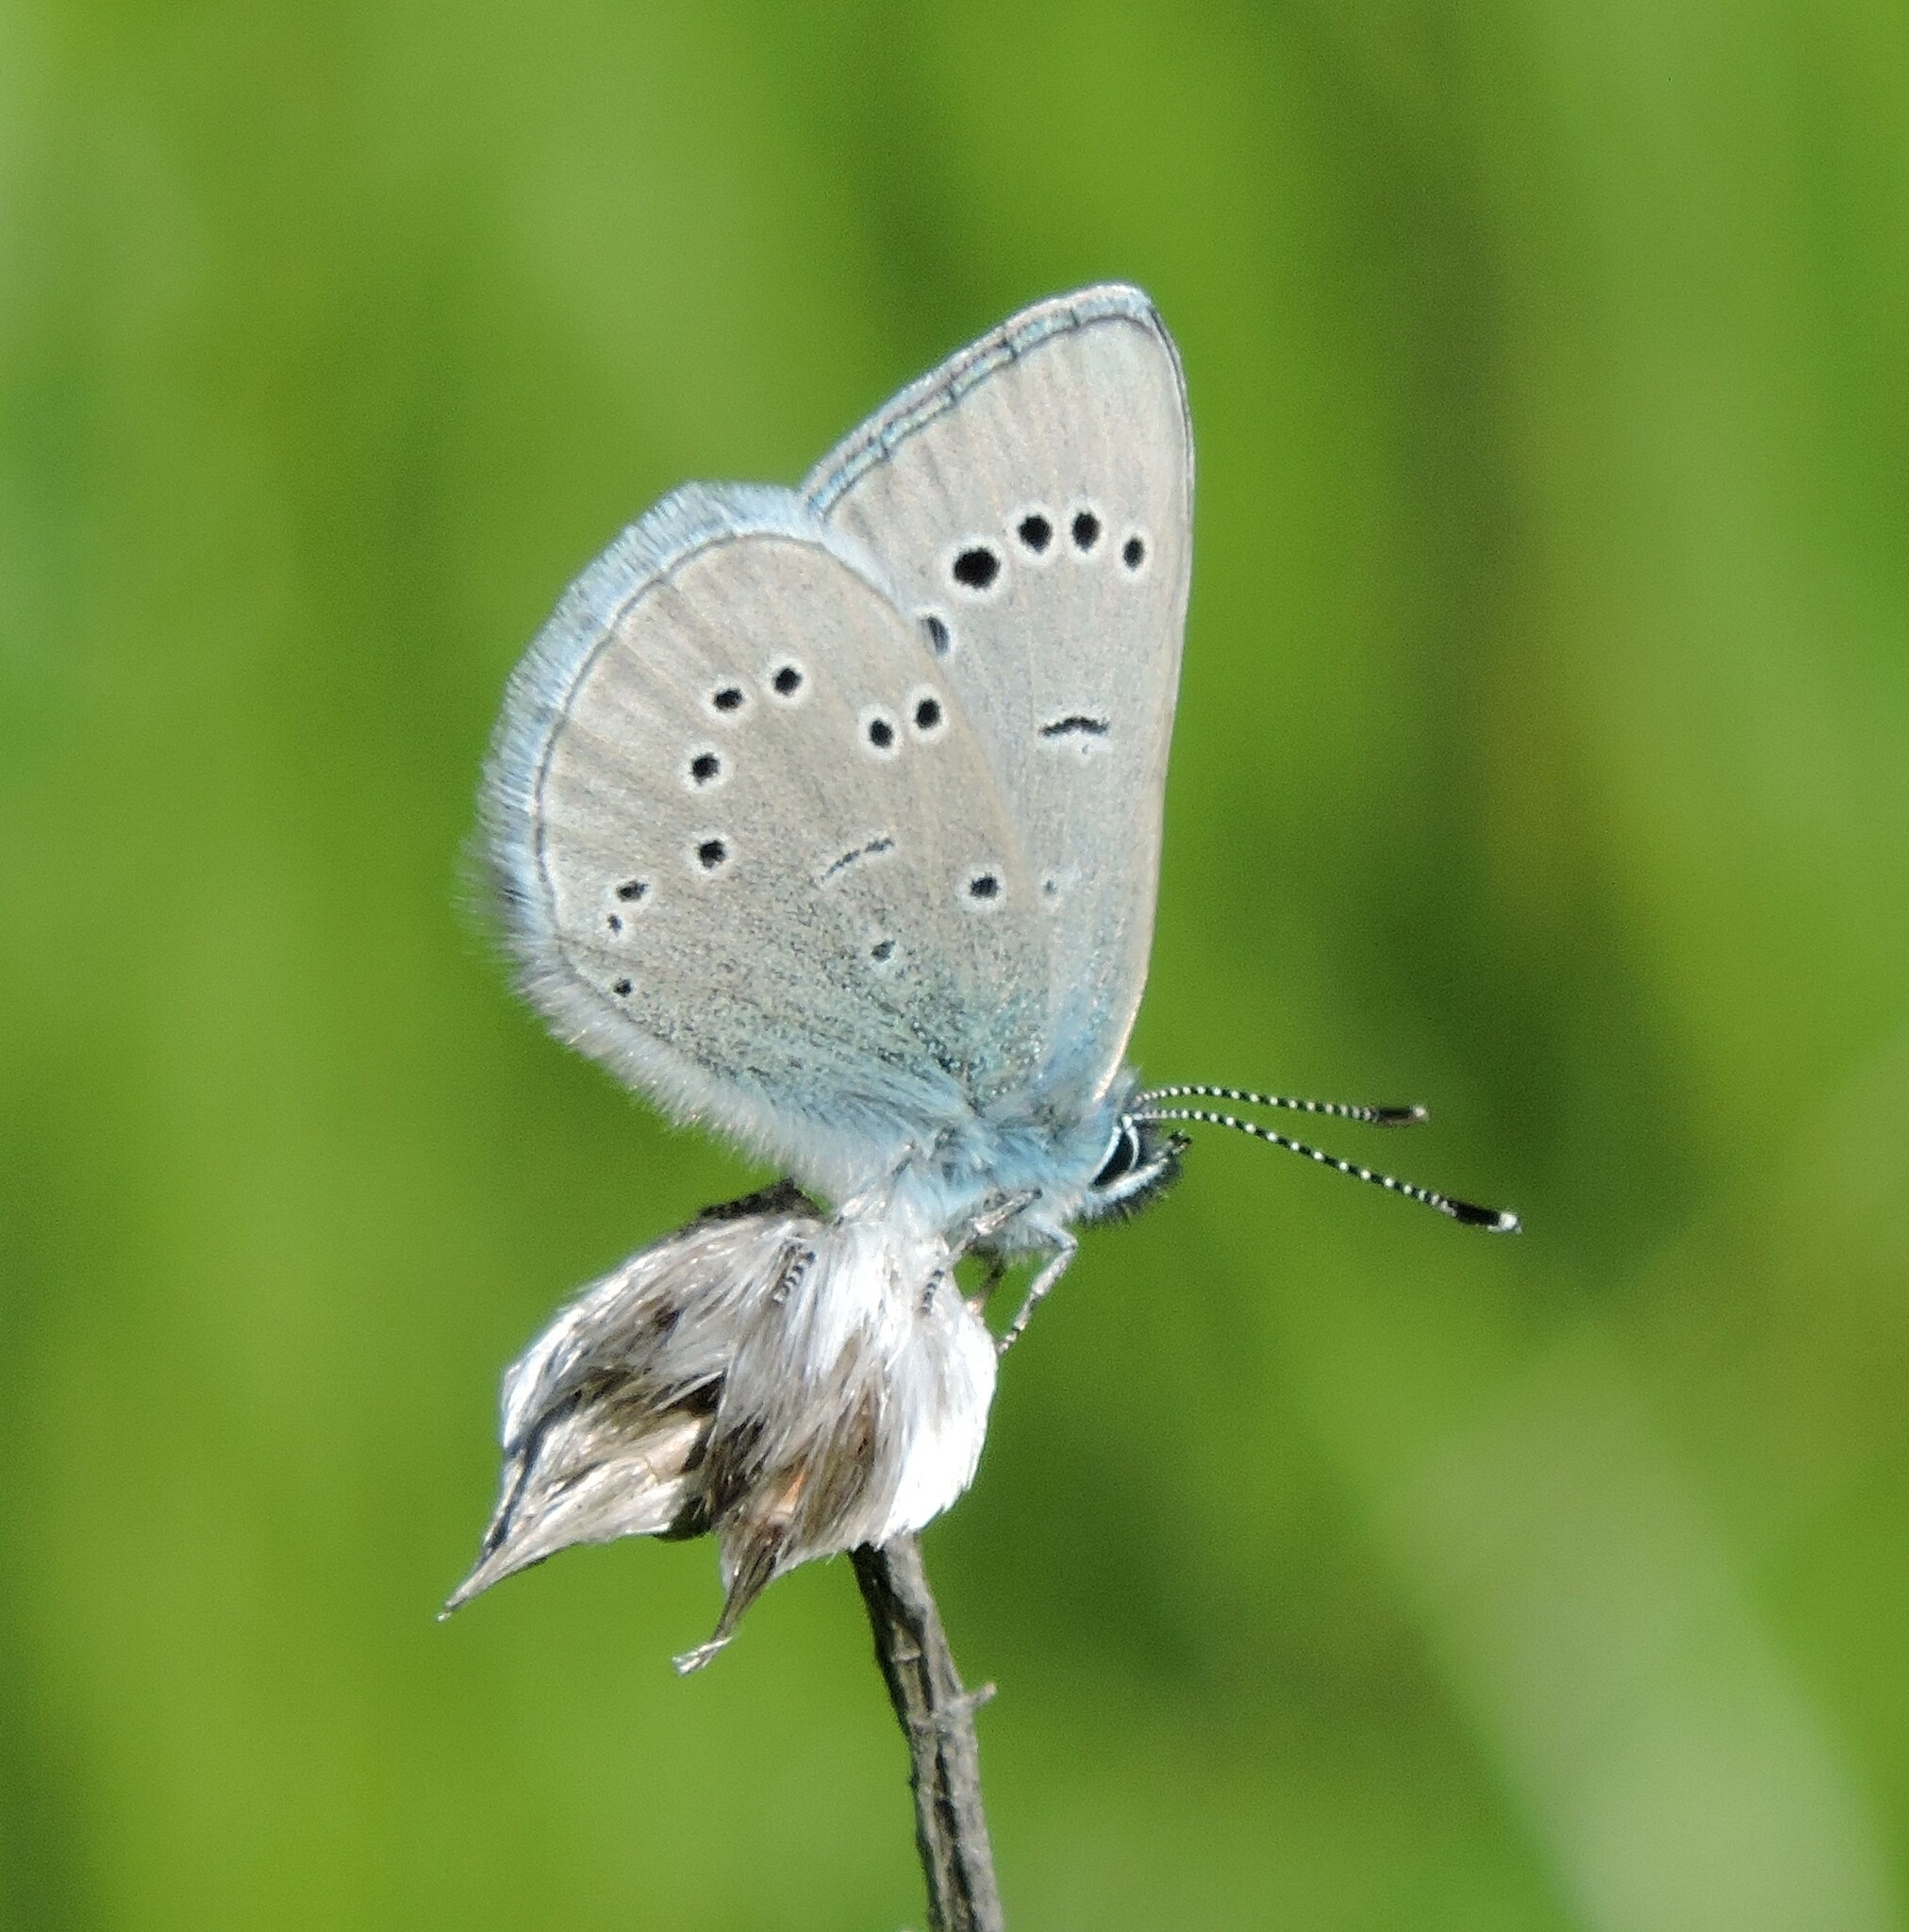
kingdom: Animalia
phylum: Arthropoda
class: Insecta
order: Lepidoptera
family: Lycaenidae
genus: Glaucopsyche
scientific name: Glaucopsyche lygdamus
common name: Silvery blue
